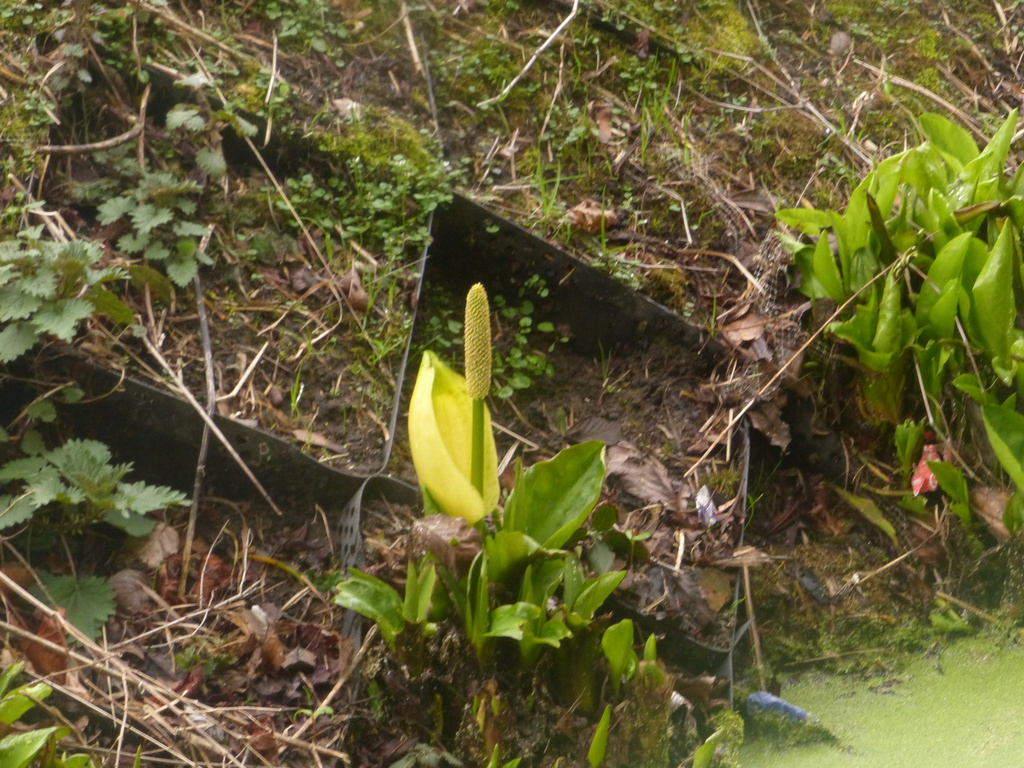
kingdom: Plantae
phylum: Tracheophyta
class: Liliopsida
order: Alismatales
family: Araceae
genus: Lysichiton
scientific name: Lysichiton americanus
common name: American skunk cabbage
